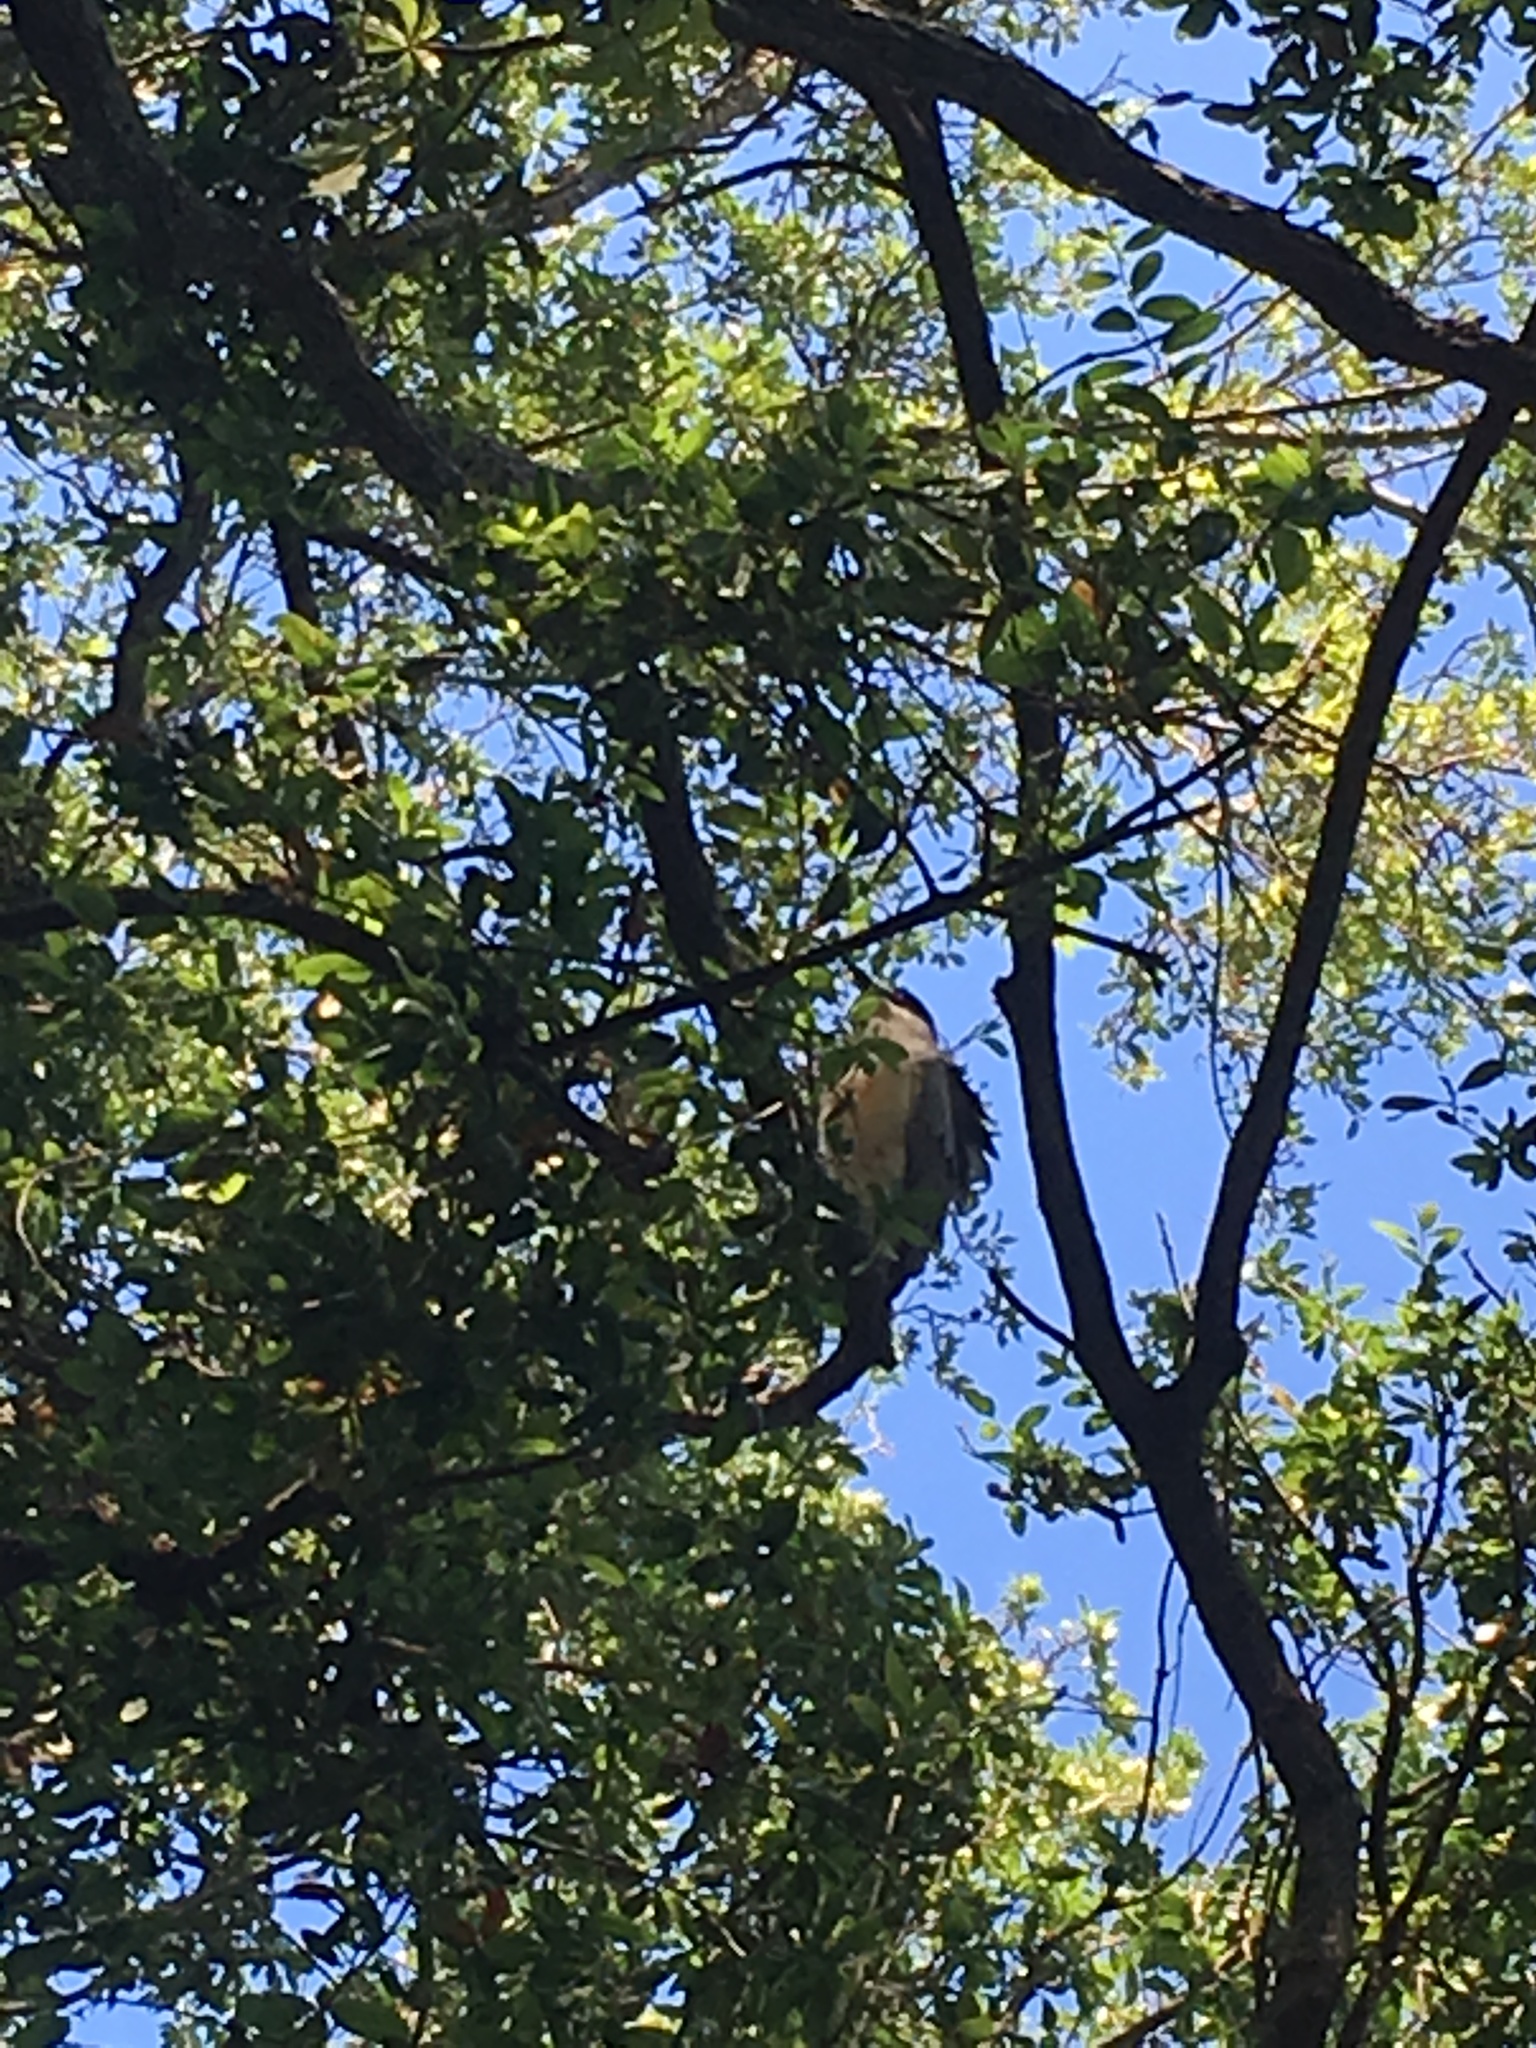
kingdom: Animalia
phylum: Chordata
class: Aves
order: Pelecaniformes
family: Ardeidae
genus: Nycticorax
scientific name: Nycticorax nycticorax
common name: Black-crowned night heron
